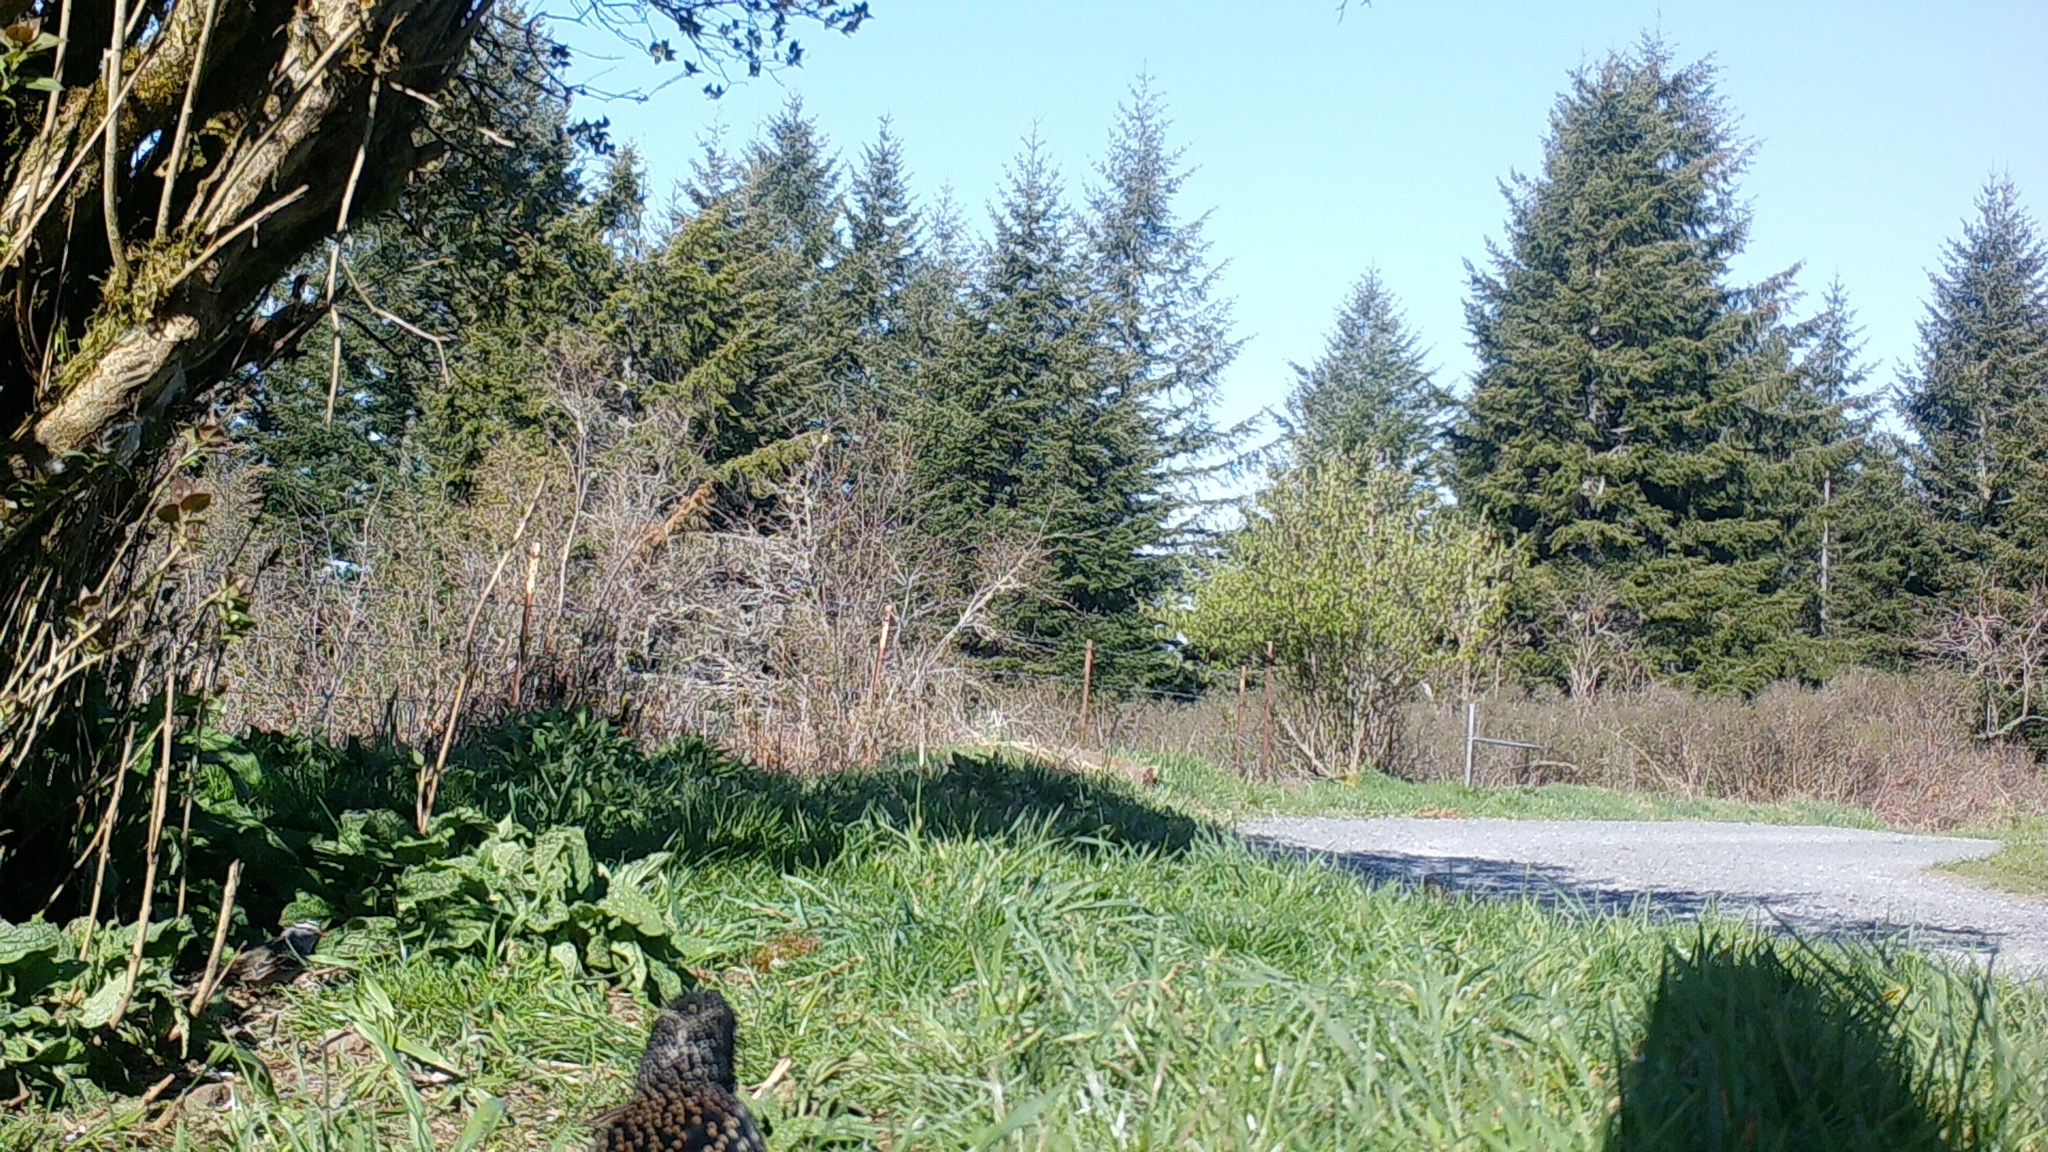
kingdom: Animalia
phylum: Chordata
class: Aves
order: Passeriformes
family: Sturnidae
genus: Sturnus
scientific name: Sturnus vulgaris
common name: Common starling
